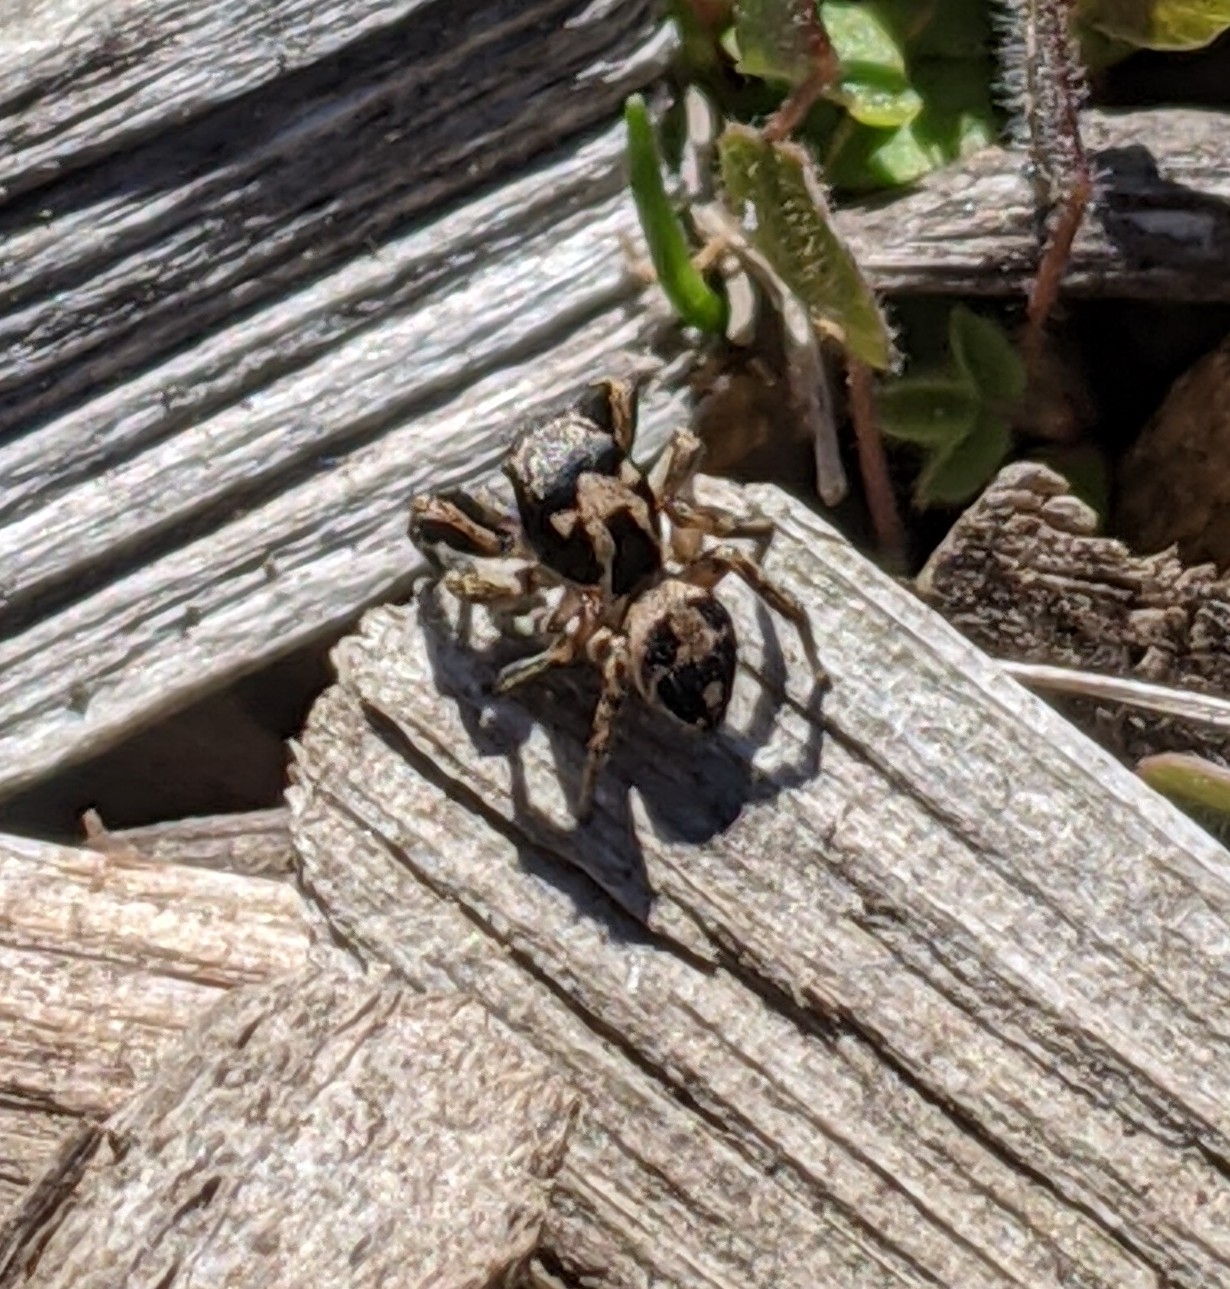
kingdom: Animalia
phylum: Arthropoda
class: Arachnida
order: Araneae
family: Salticidae
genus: Habronattus
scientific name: Habronattus coecatus
